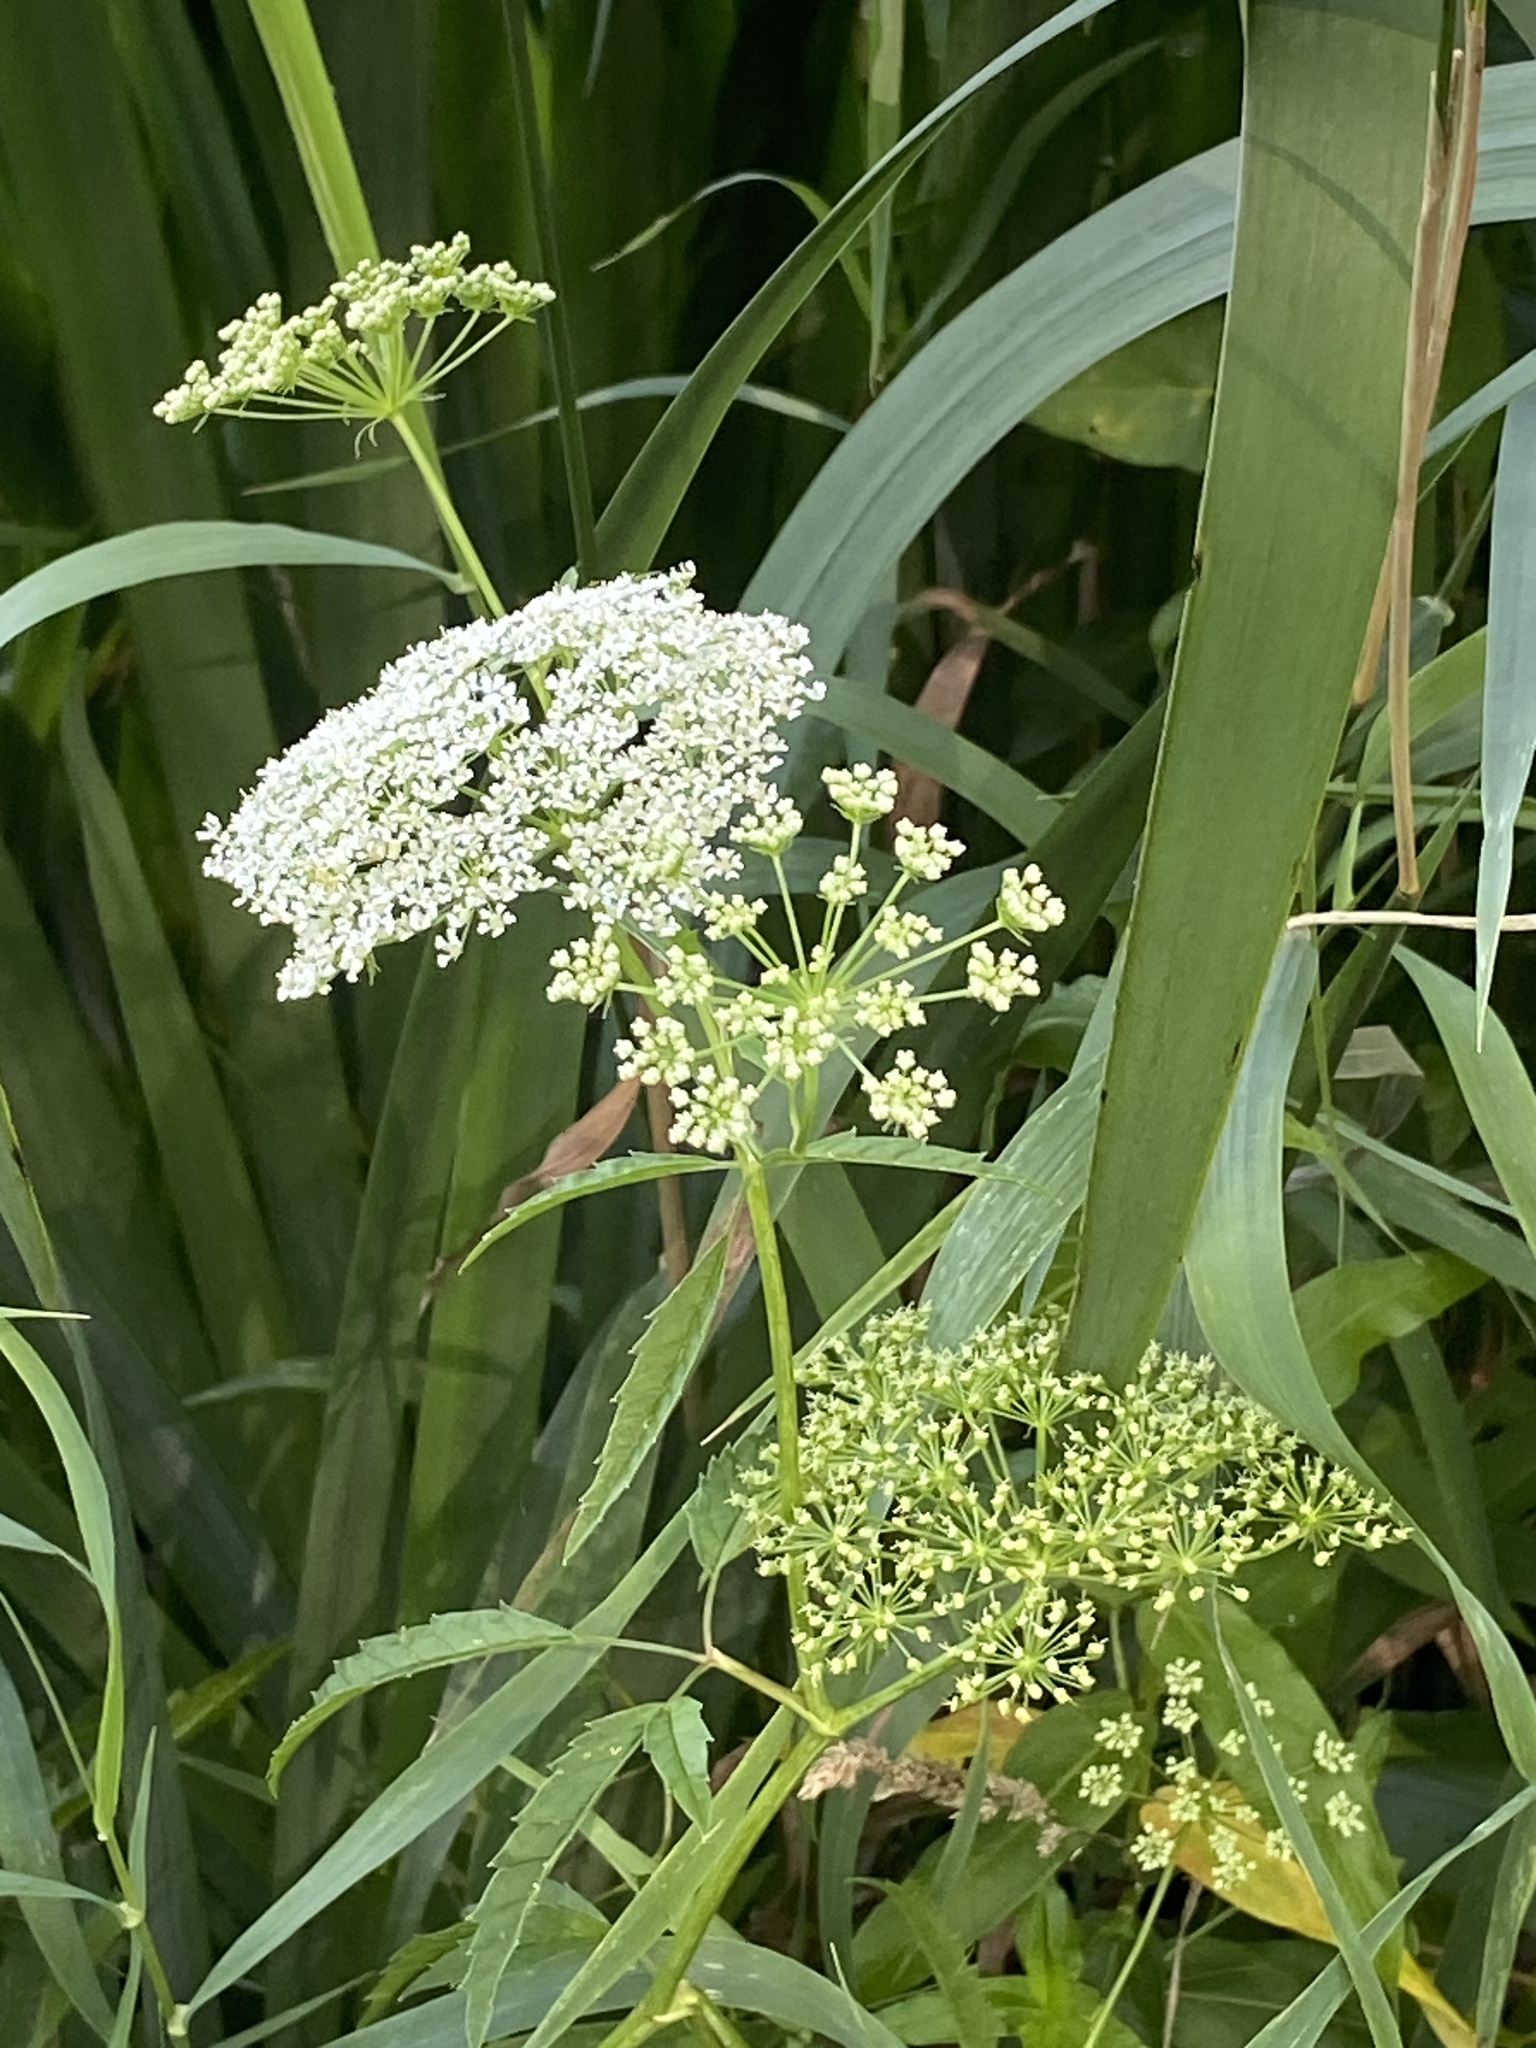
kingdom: Plantae
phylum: Tracheophyta
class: Magnoliopsida
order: Apiales
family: Apiaceae
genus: Cicuta
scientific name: Cicuta maculata
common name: Spotted cowbane
